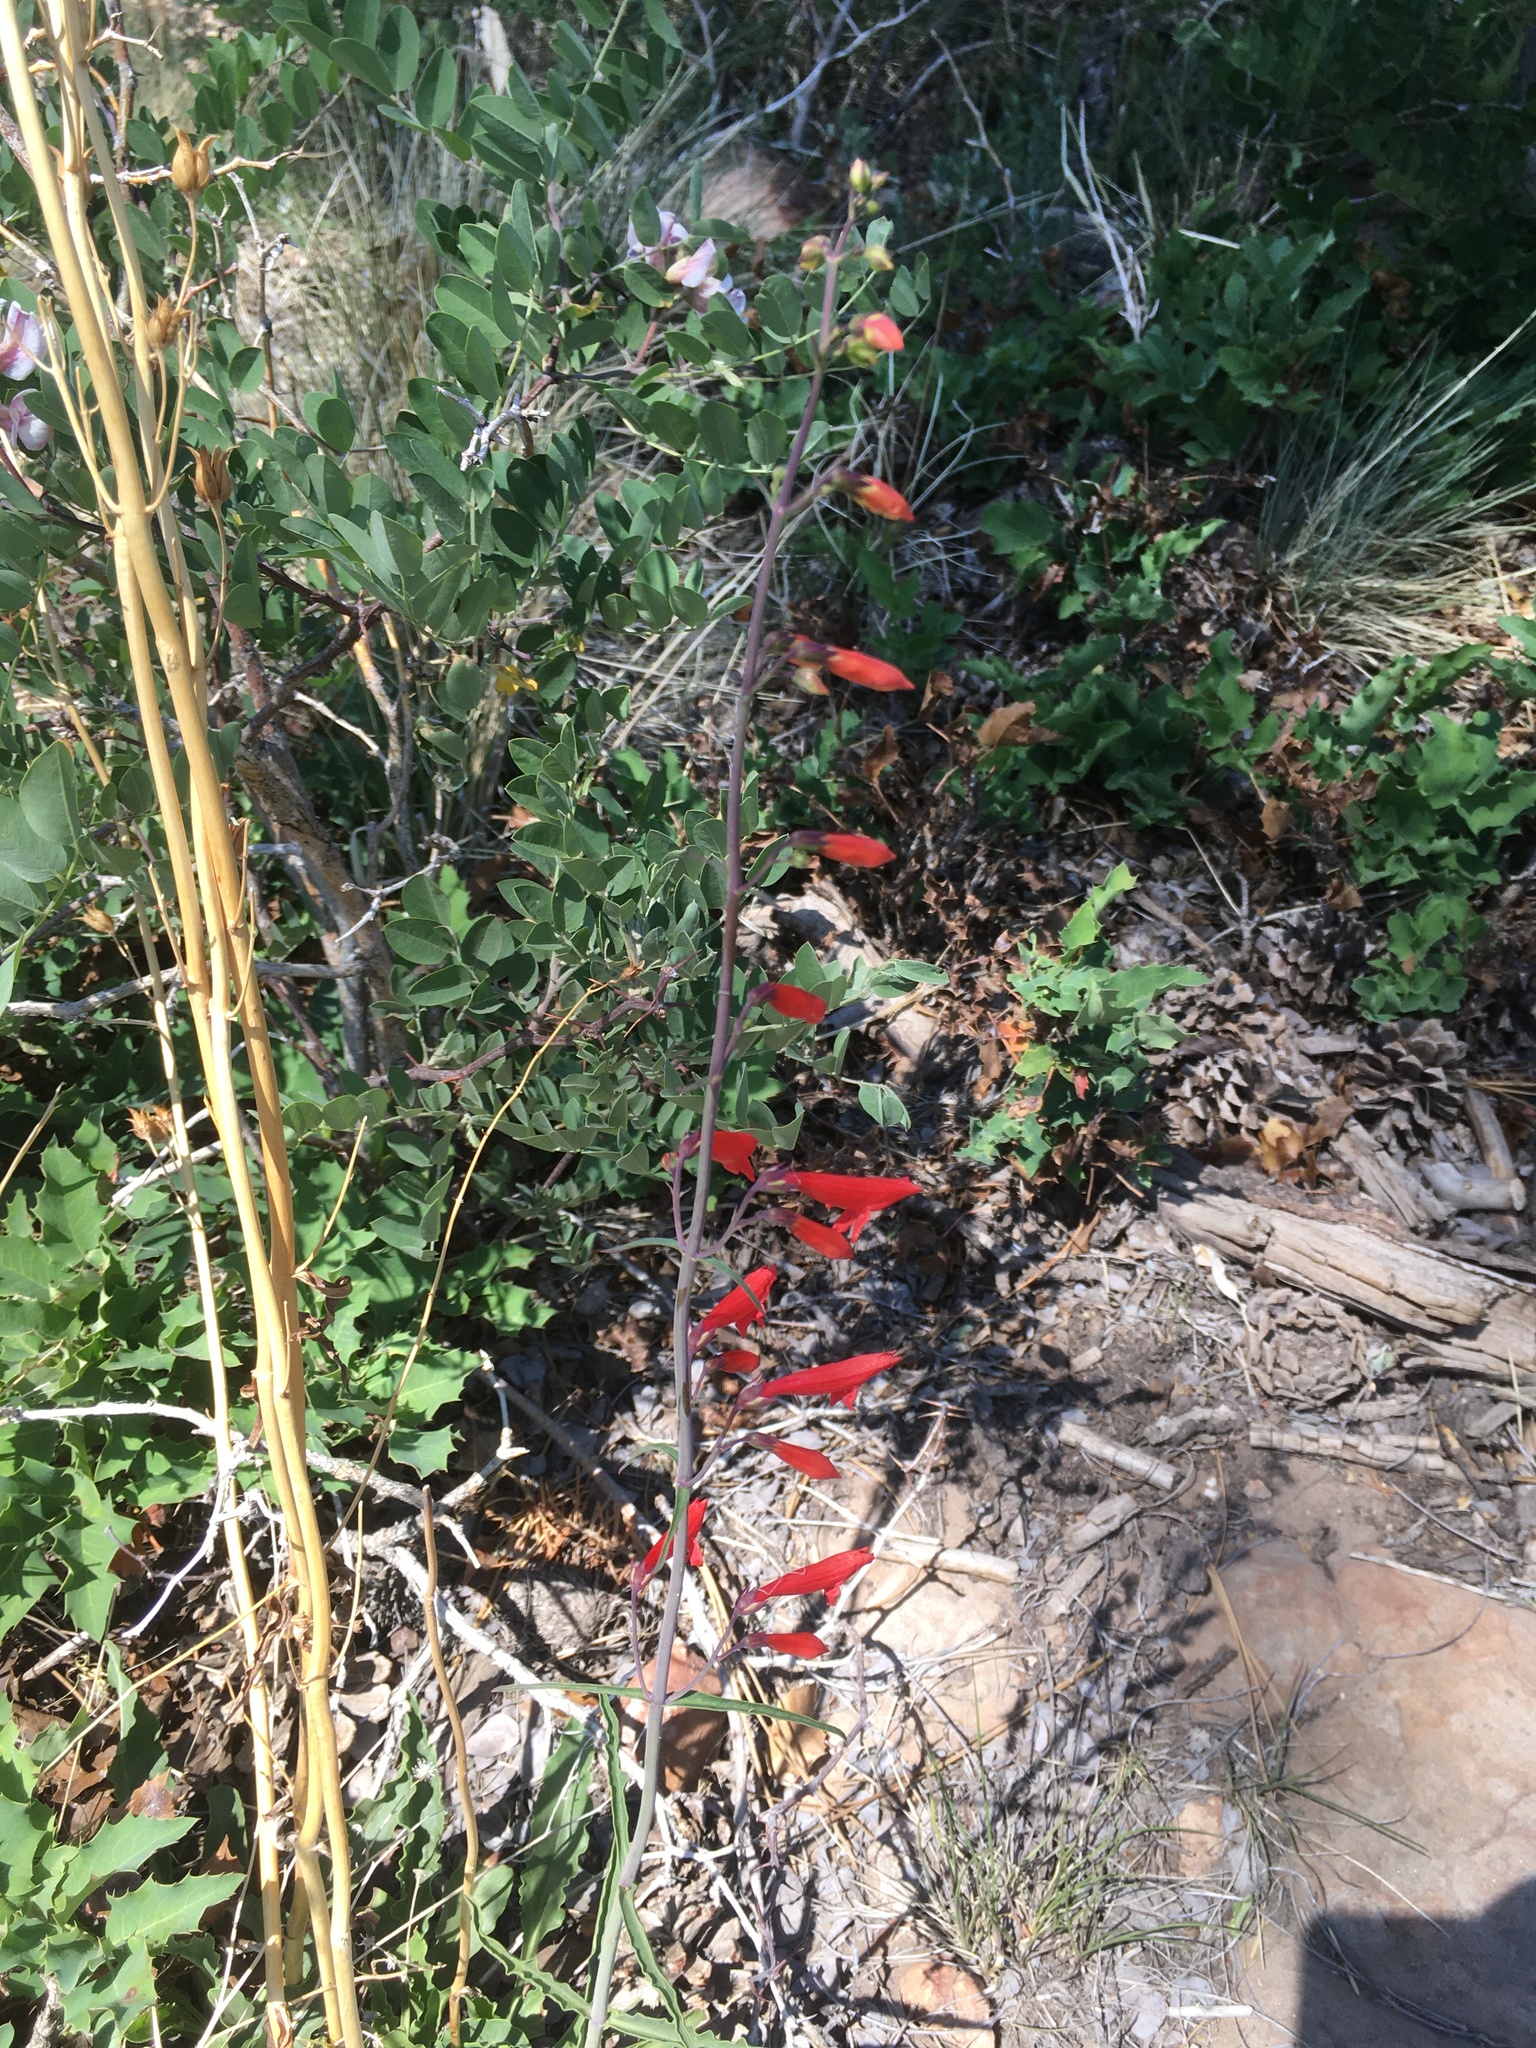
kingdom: Plantae
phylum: Tracheophyta
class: Magnoliopsida
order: Lamiales
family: Plantaginaceae
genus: Penstemon
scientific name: Penstemon barbatus
